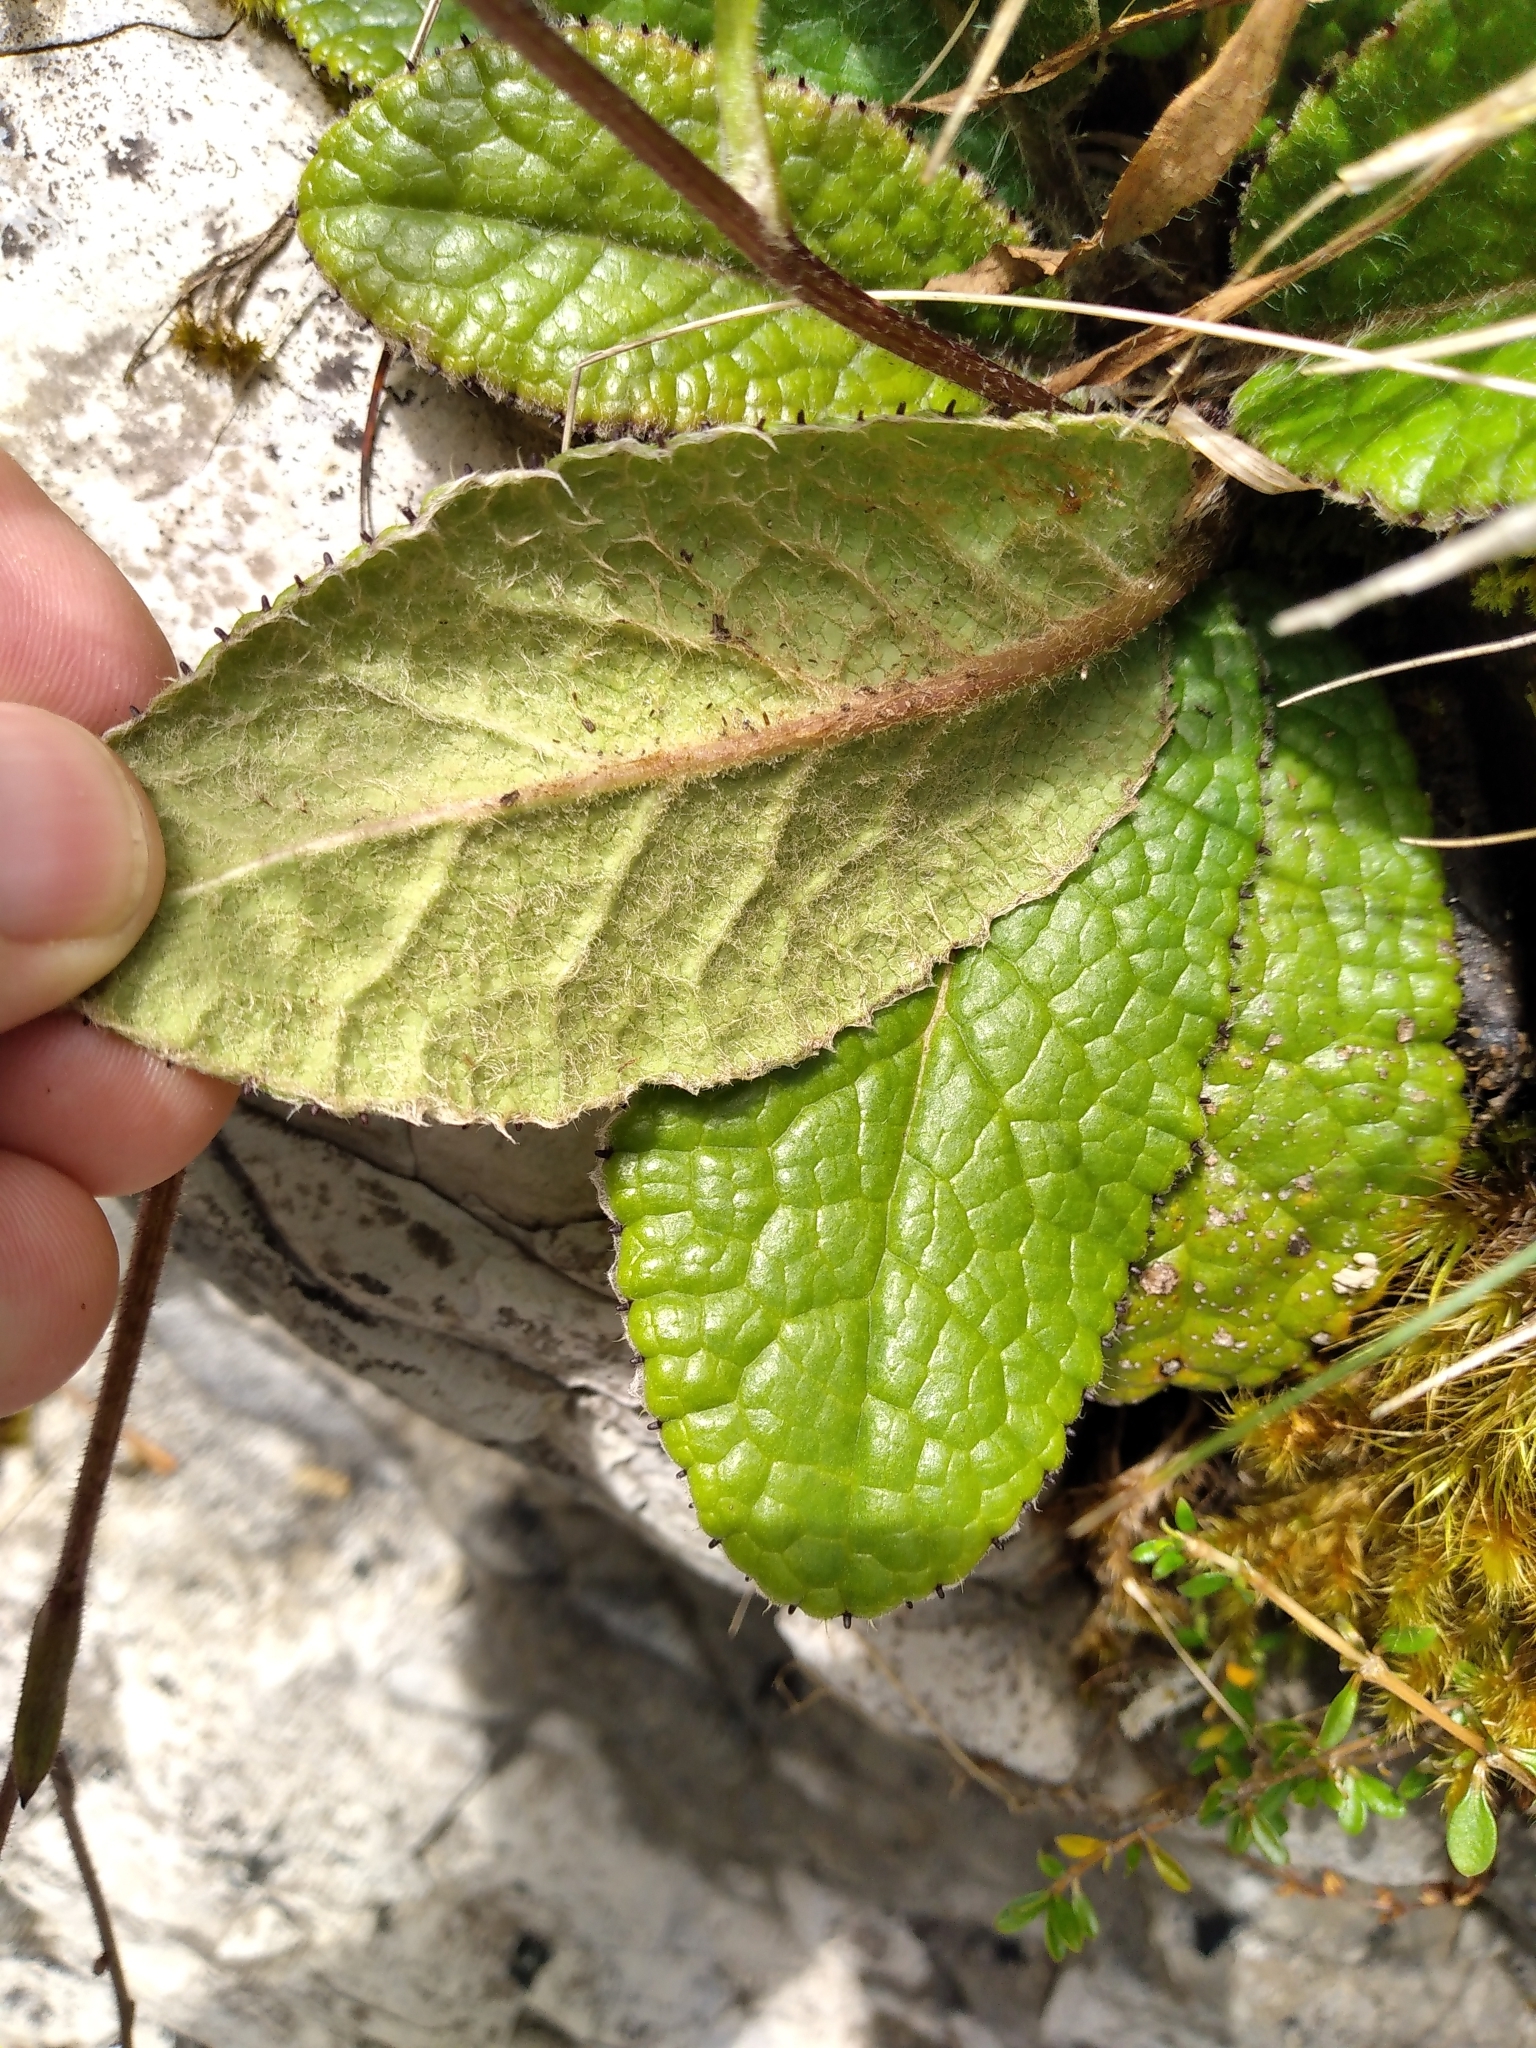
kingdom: Plantae
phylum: Tracheophyta
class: Magnoliopsida
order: Asterales
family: Asteraceae
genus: Brachyglottis
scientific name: Brachyglottis lagopus
